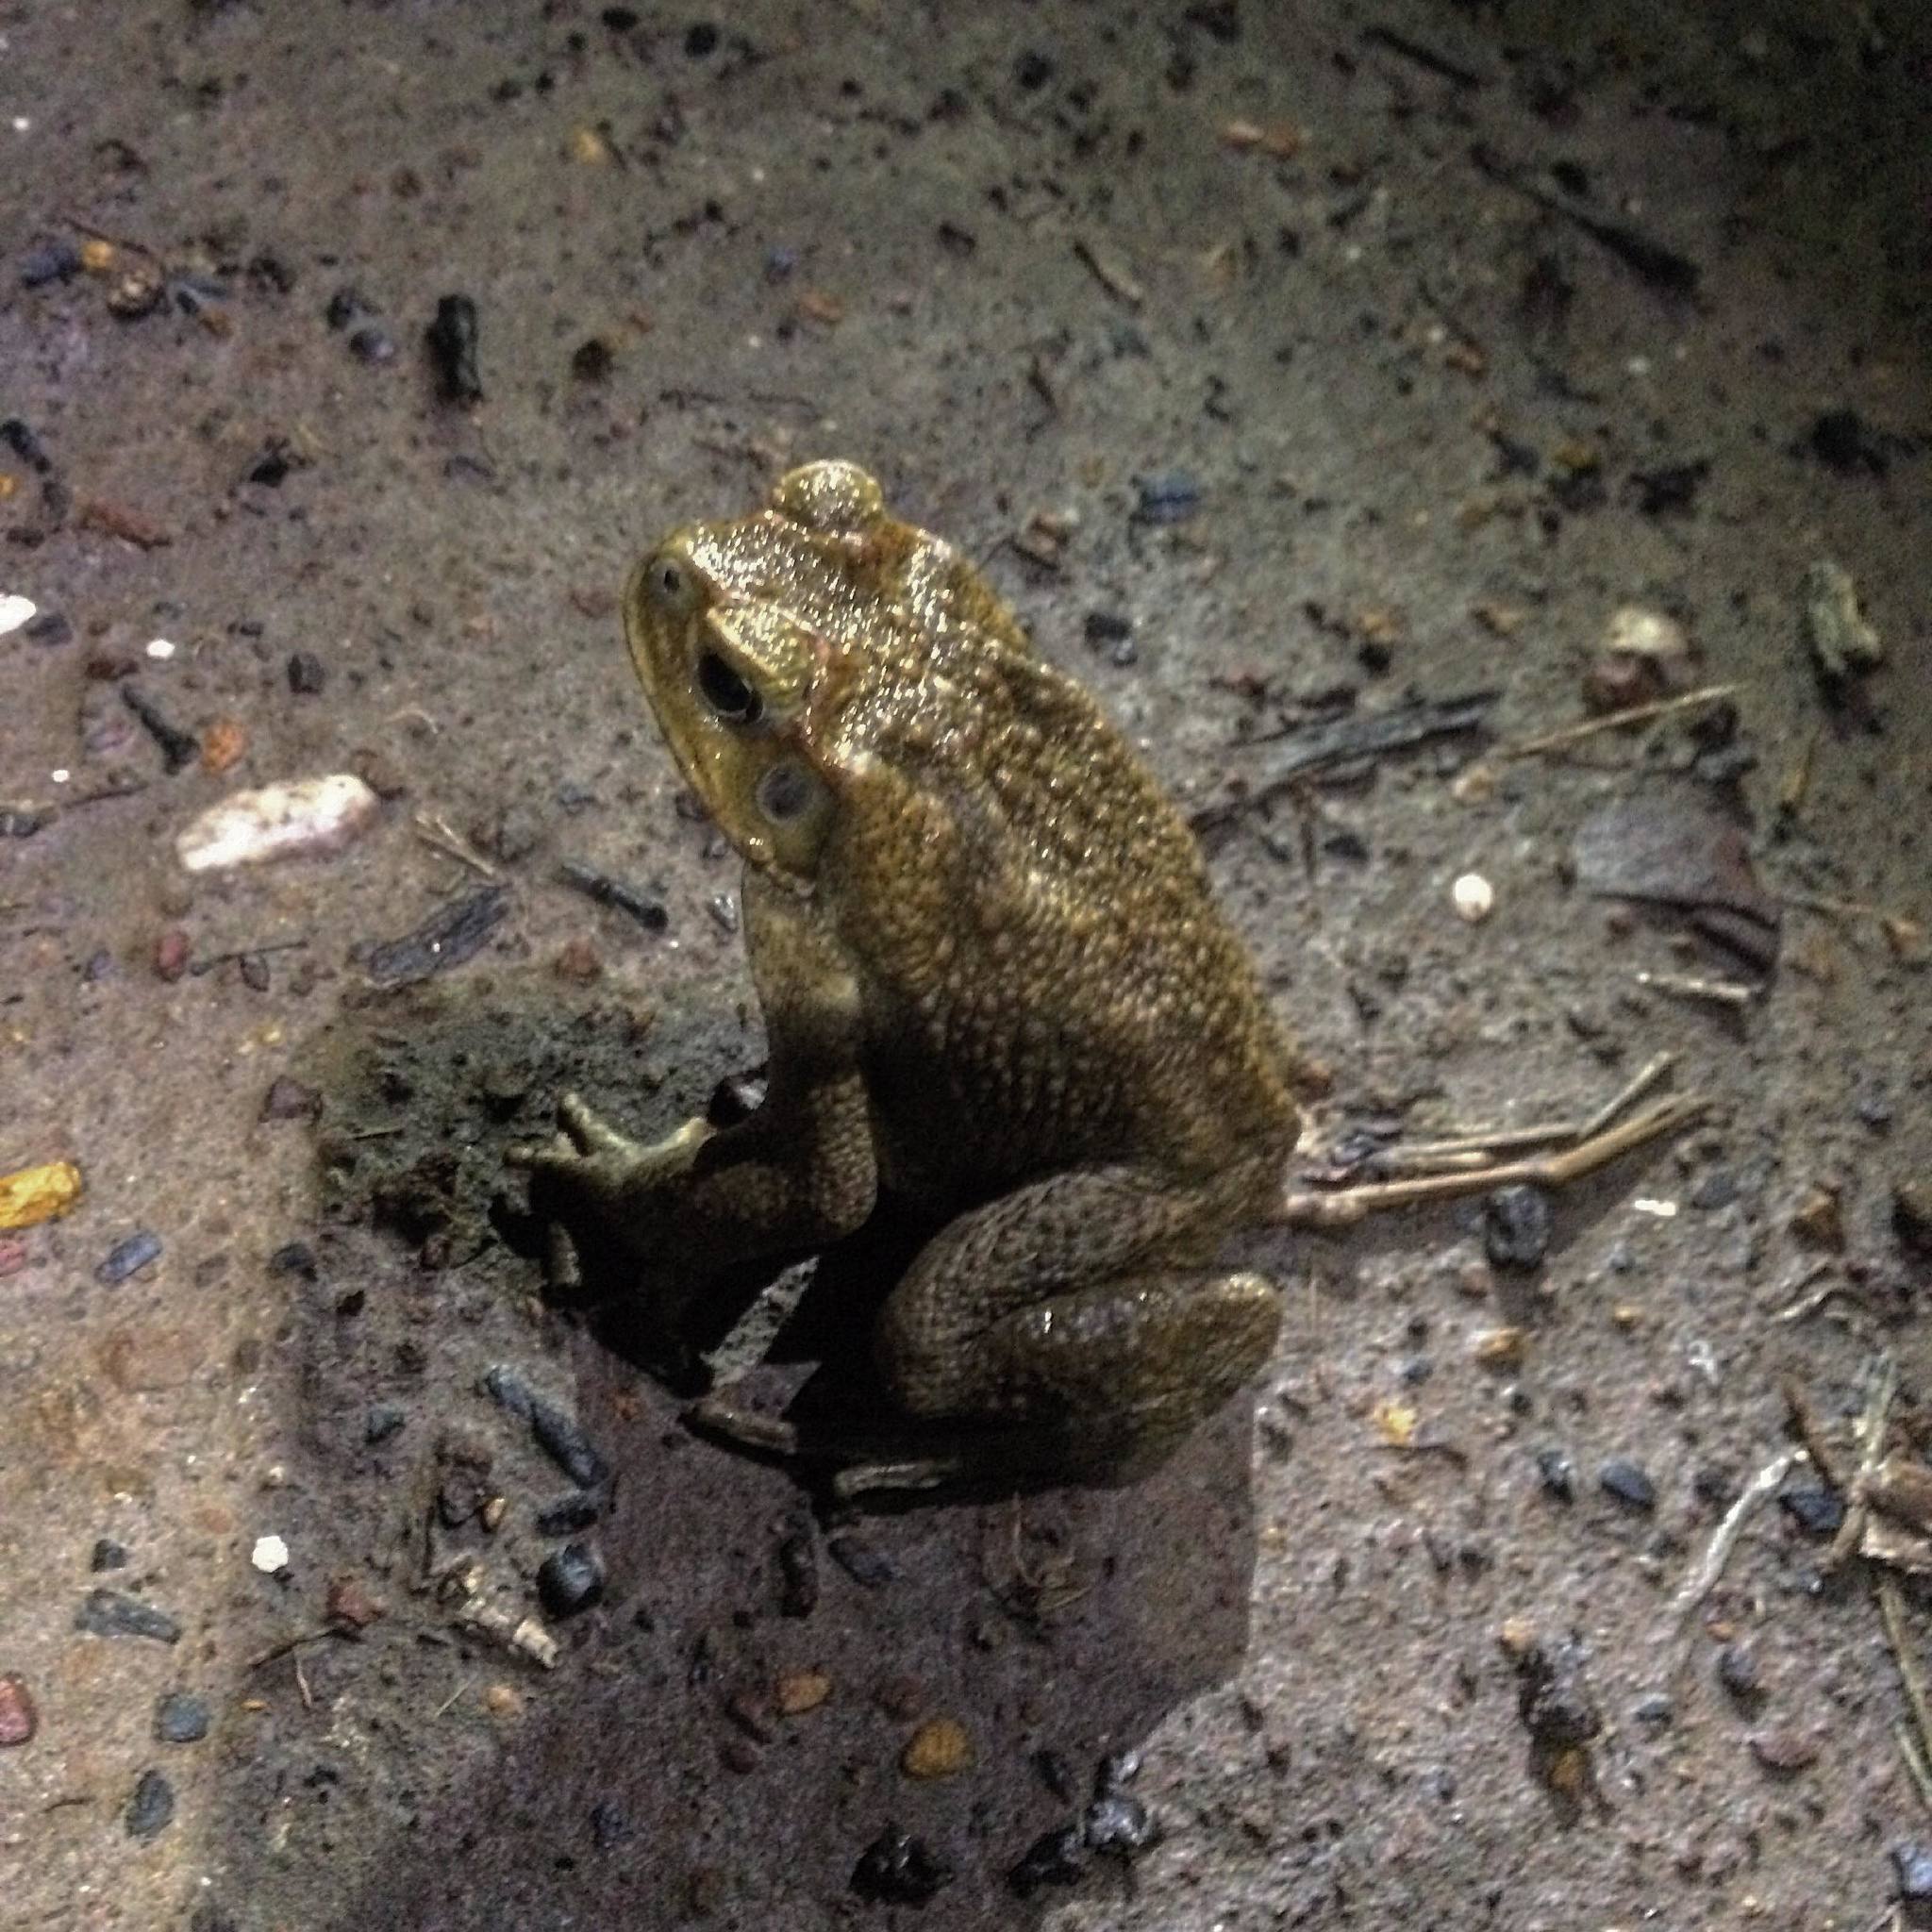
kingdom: Animalia
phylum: Chordata
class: Amphibia
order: Anura
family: Bufonidae
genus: Rhinella
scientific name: Rhinella marina
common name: Cane toad
